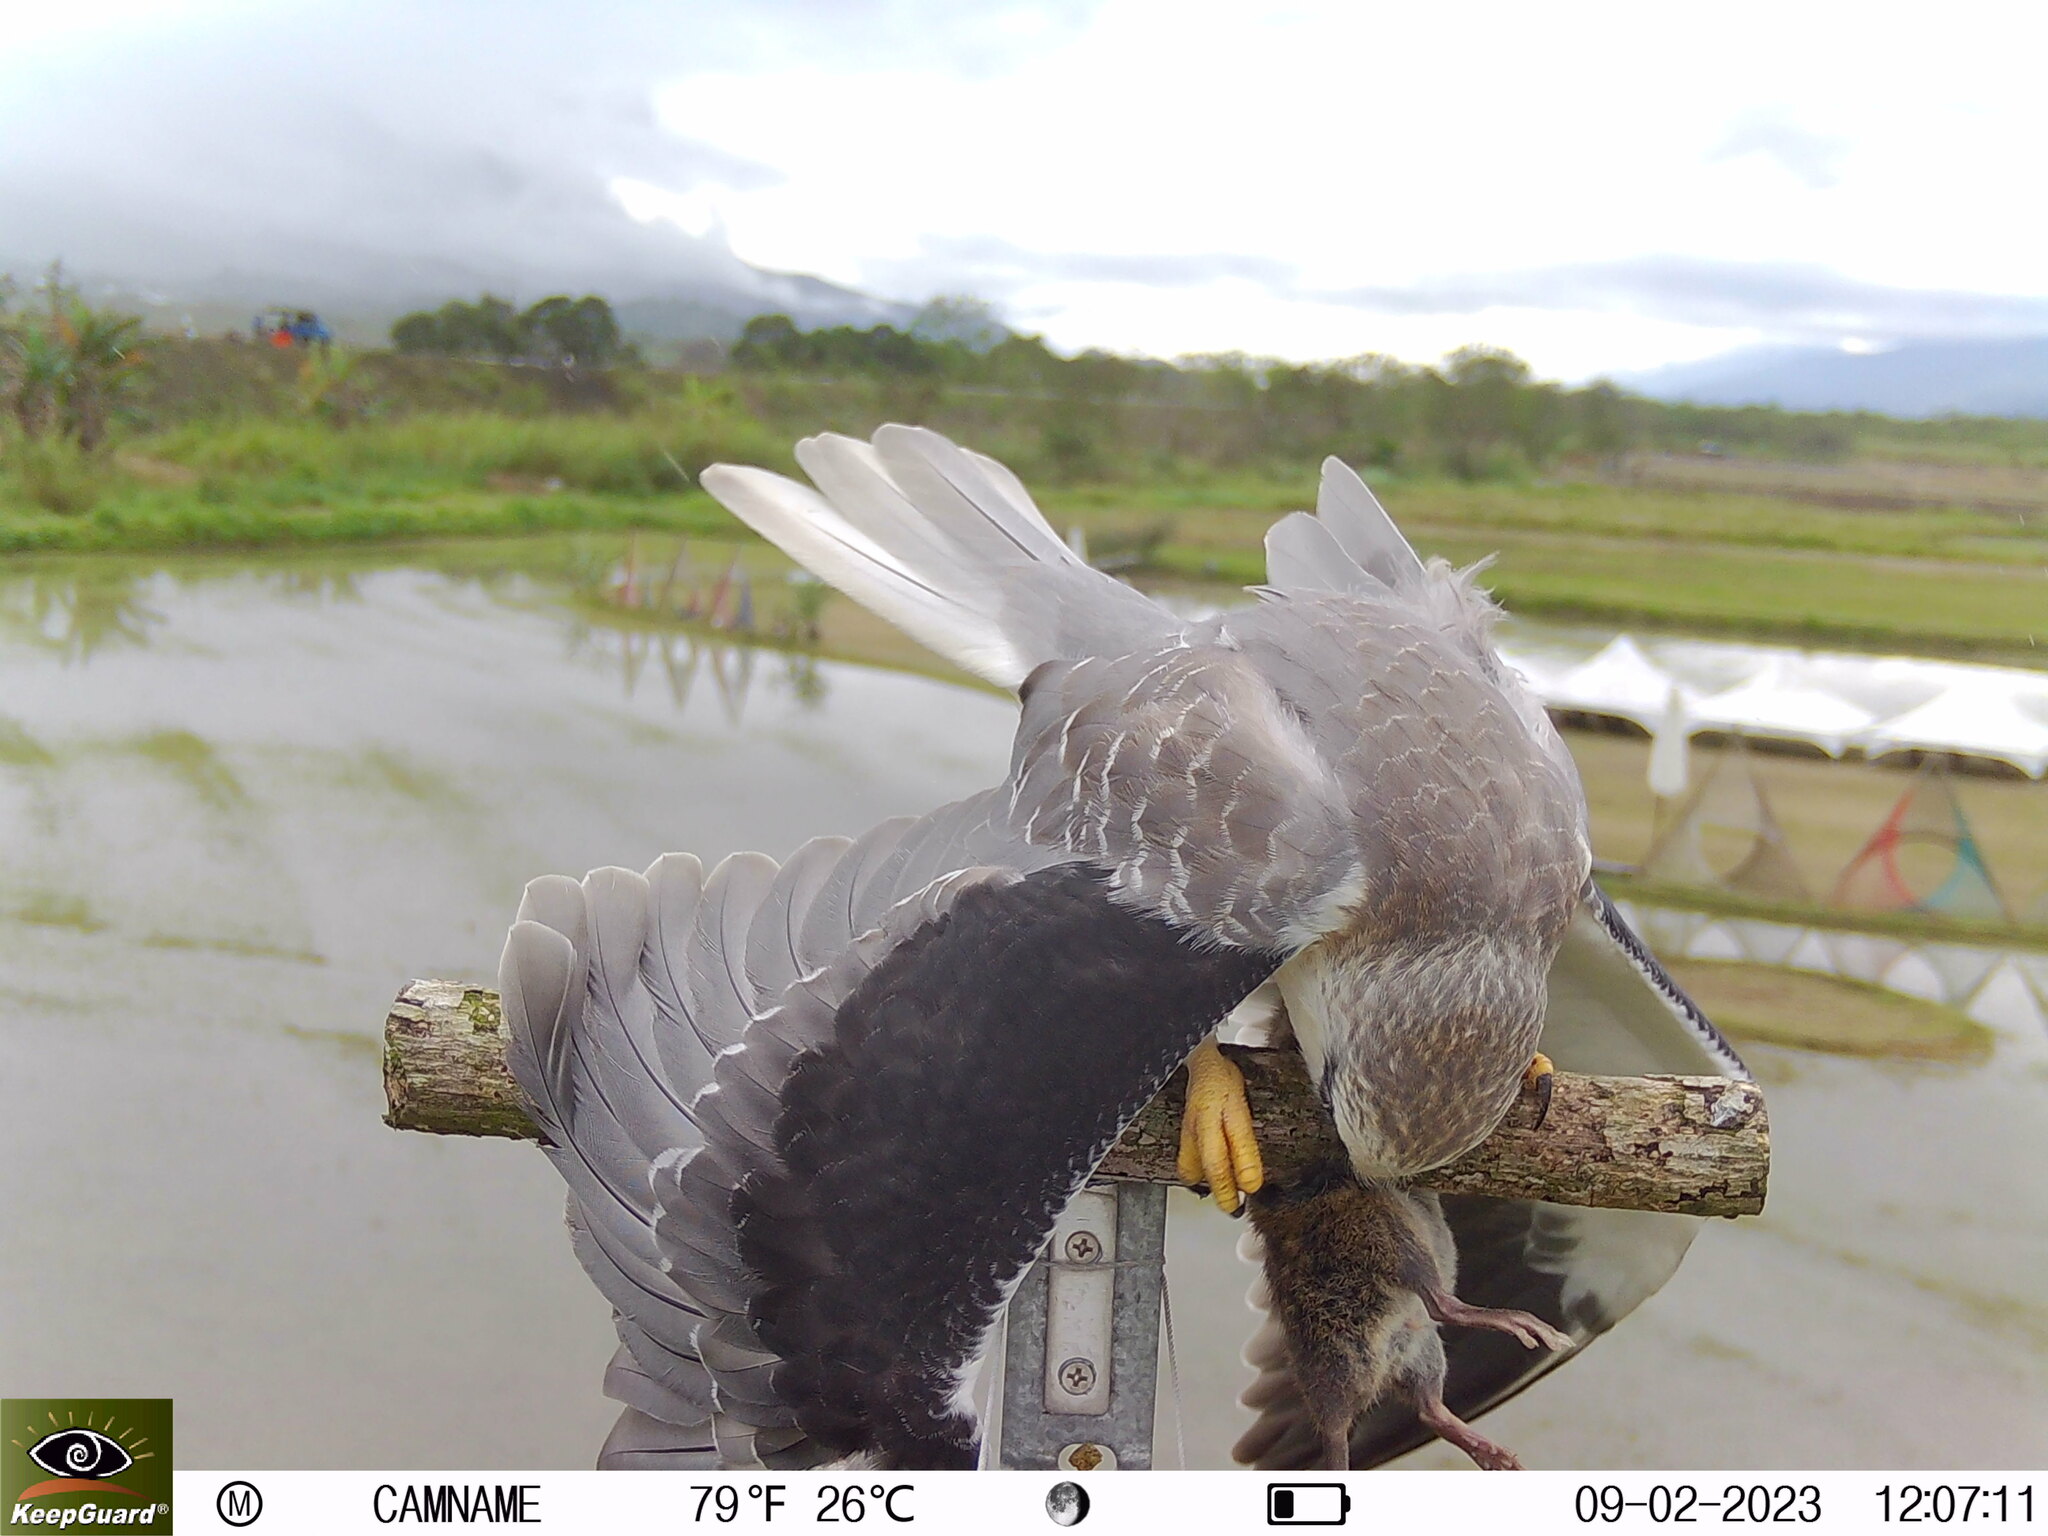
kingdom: Animalia
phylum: Chordata
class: Aves
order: Accipitriformes
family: Accipitridae
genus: Elanus
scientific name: Elanus caeruleus
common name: Black-winged kite
